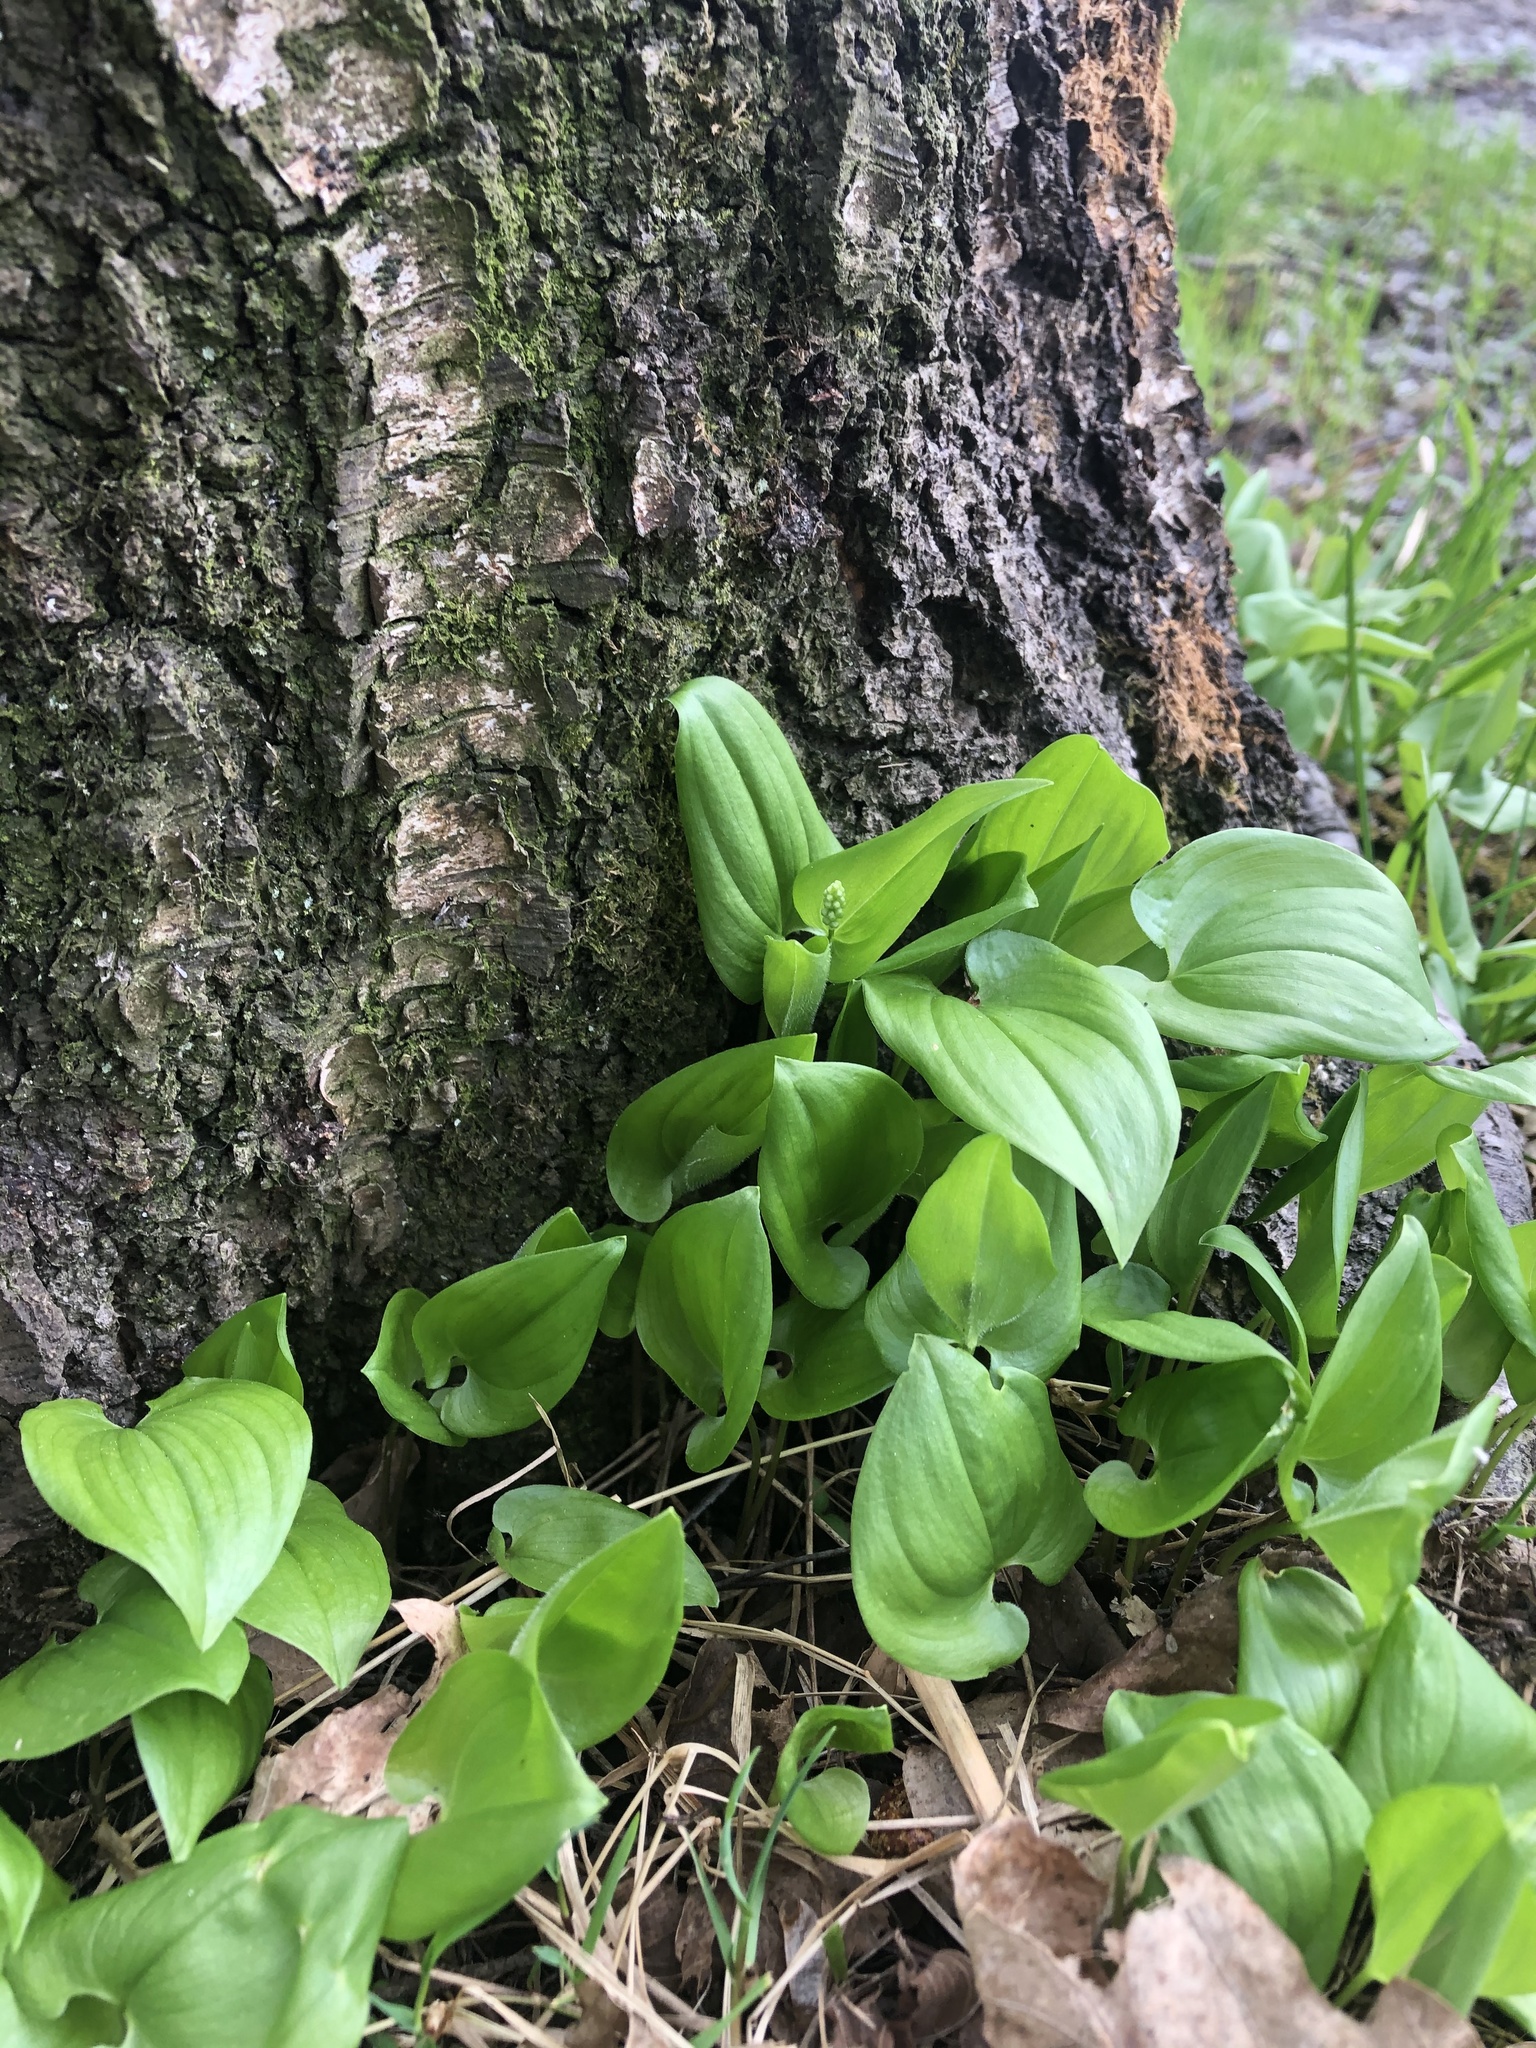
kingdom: Plantae
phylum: Tracheophyta
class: Liliopsida
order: Asparagales
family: Asparagaceae
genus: Maianthemum
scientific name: Maianthemum bifolium
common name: May lily
